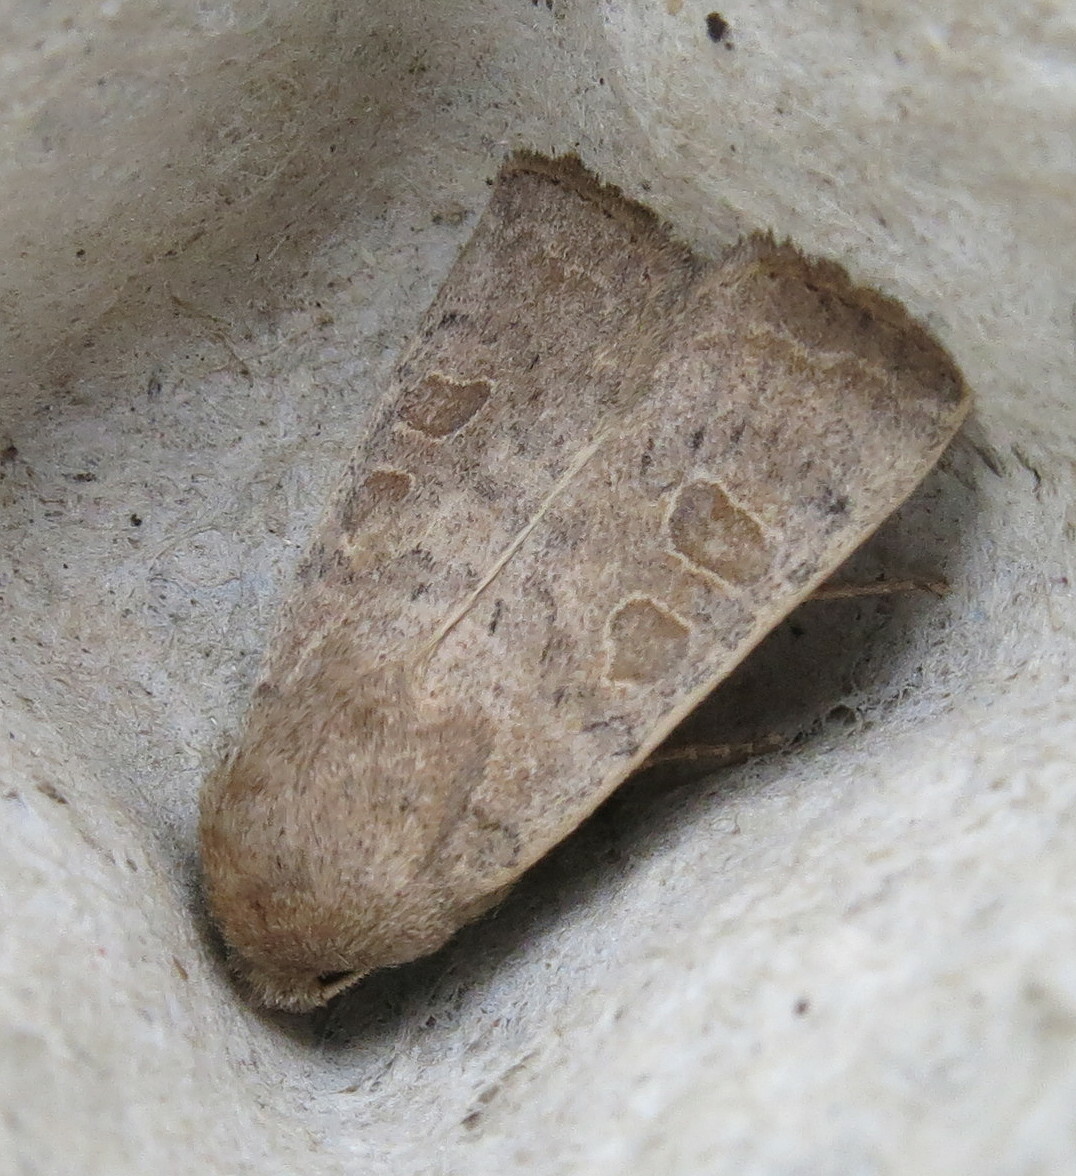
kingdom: Animalia
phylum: Arthropoda
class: Insecta
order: Lepidoptera
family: Noctuidae
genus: Hoplodrina
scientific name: Hoplodrina ambigua
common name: Vine's rustic
